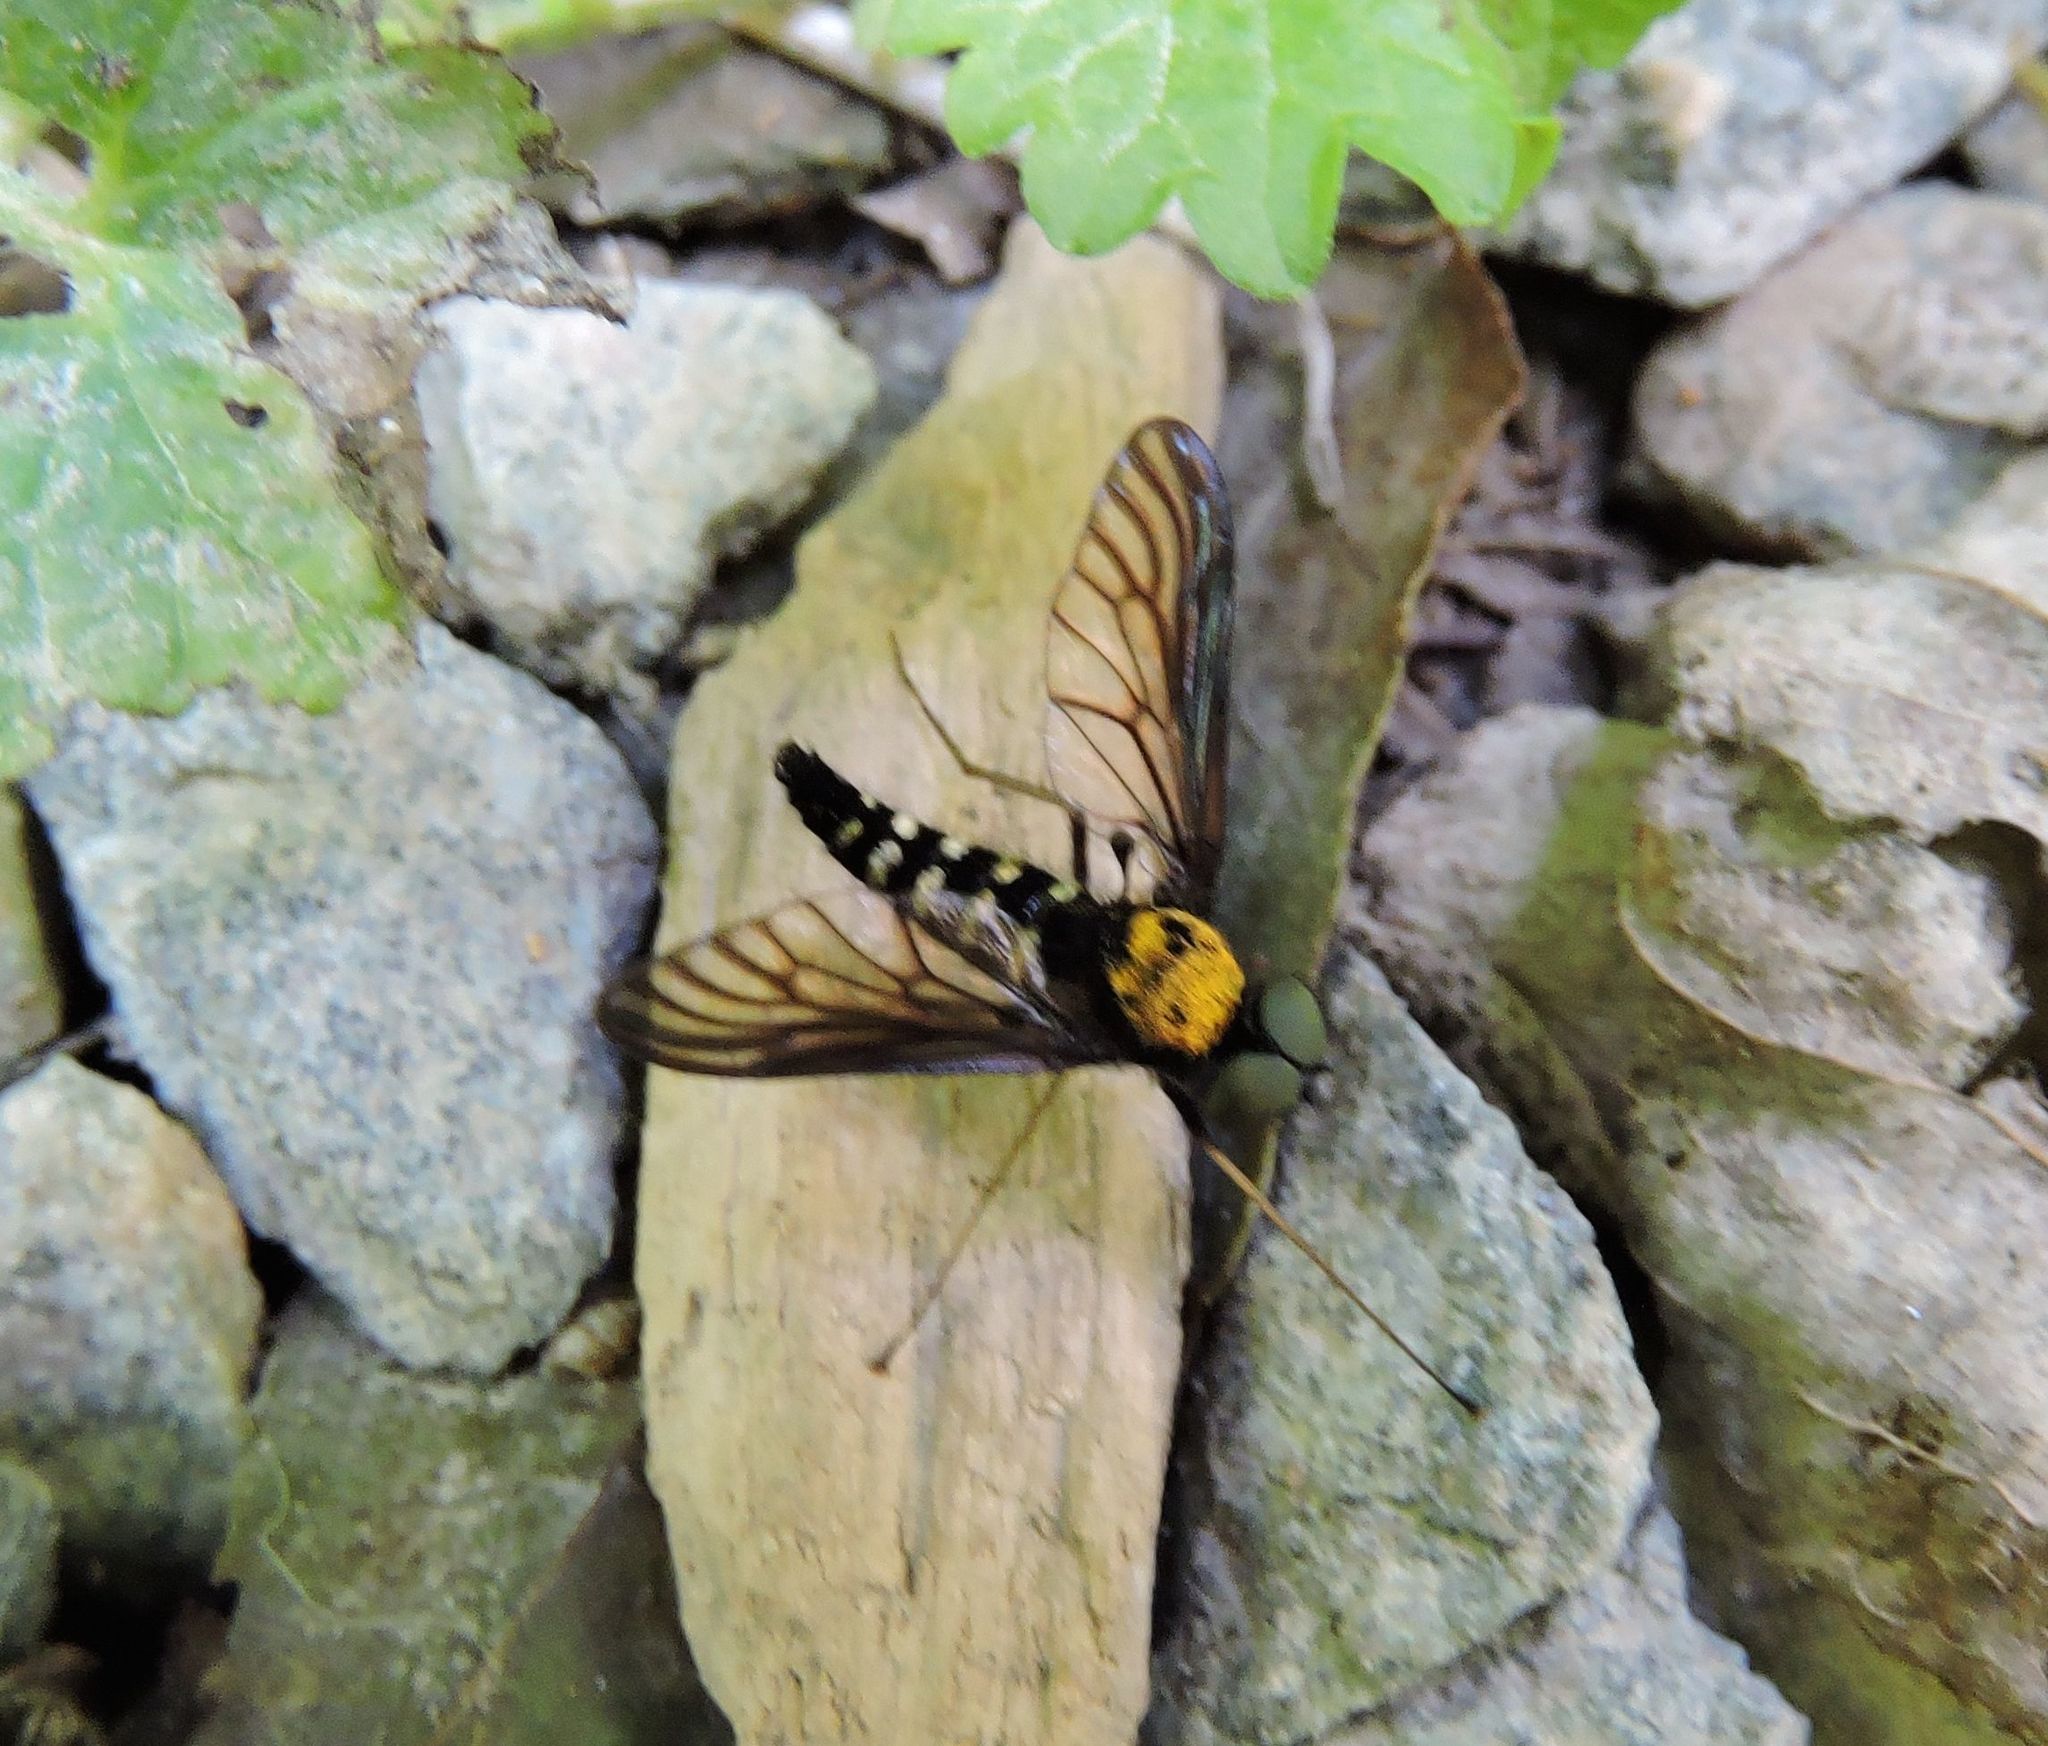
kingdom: Animalia
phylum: Arthropoda
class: Insecta
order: Diptera
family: Rhagionidae
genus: Chrysopilus
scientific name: Chrysopilus thoracicus
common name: Golden-backed snipe fly
